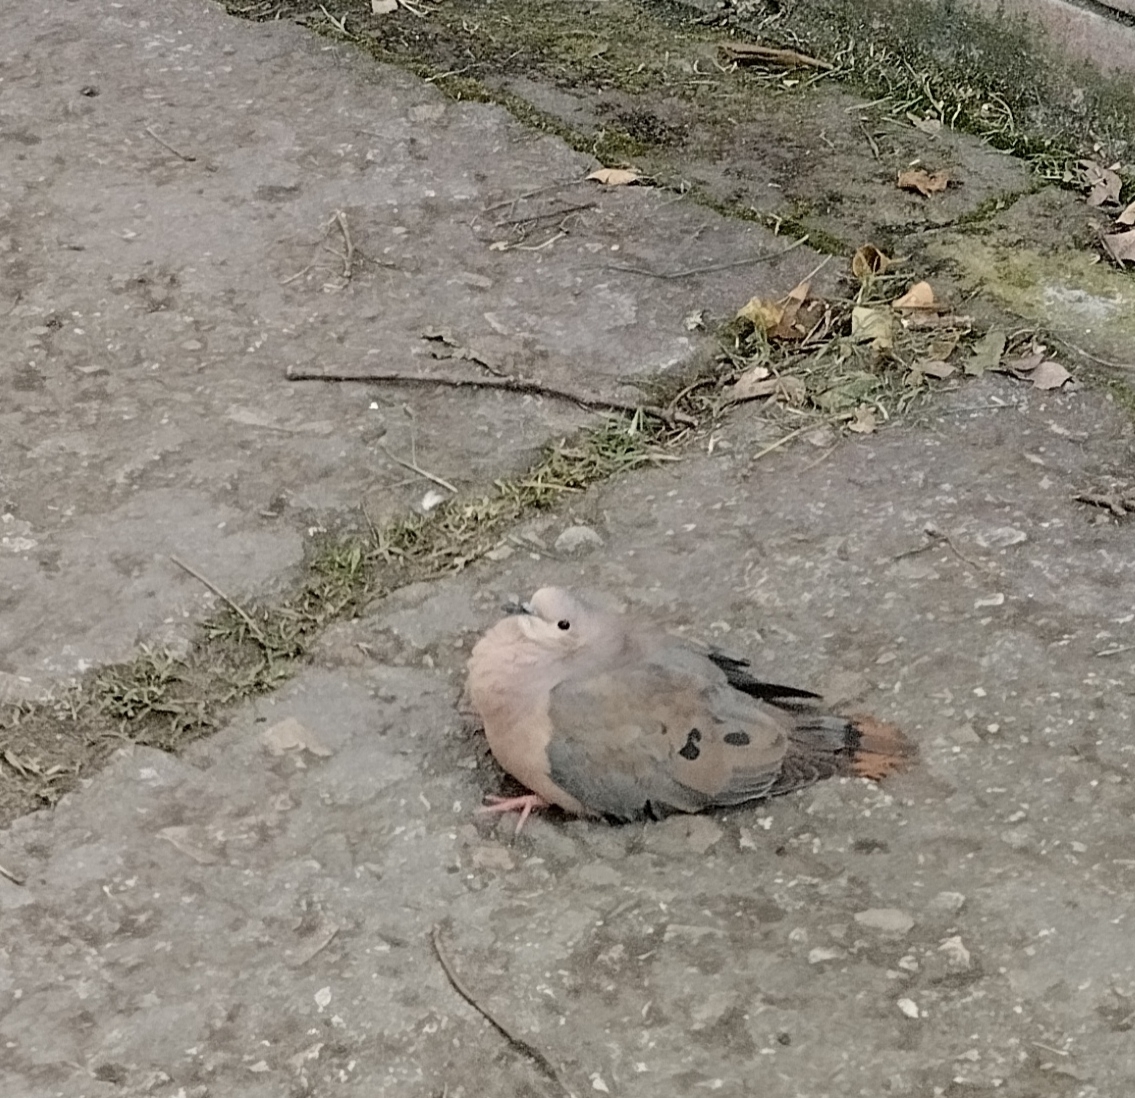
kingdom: Animalia
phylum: Chordata
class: Aves
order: Columbiformes
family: Columbidae
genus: Zenaida
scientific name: Zenaida auriculata
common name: Eared dove
